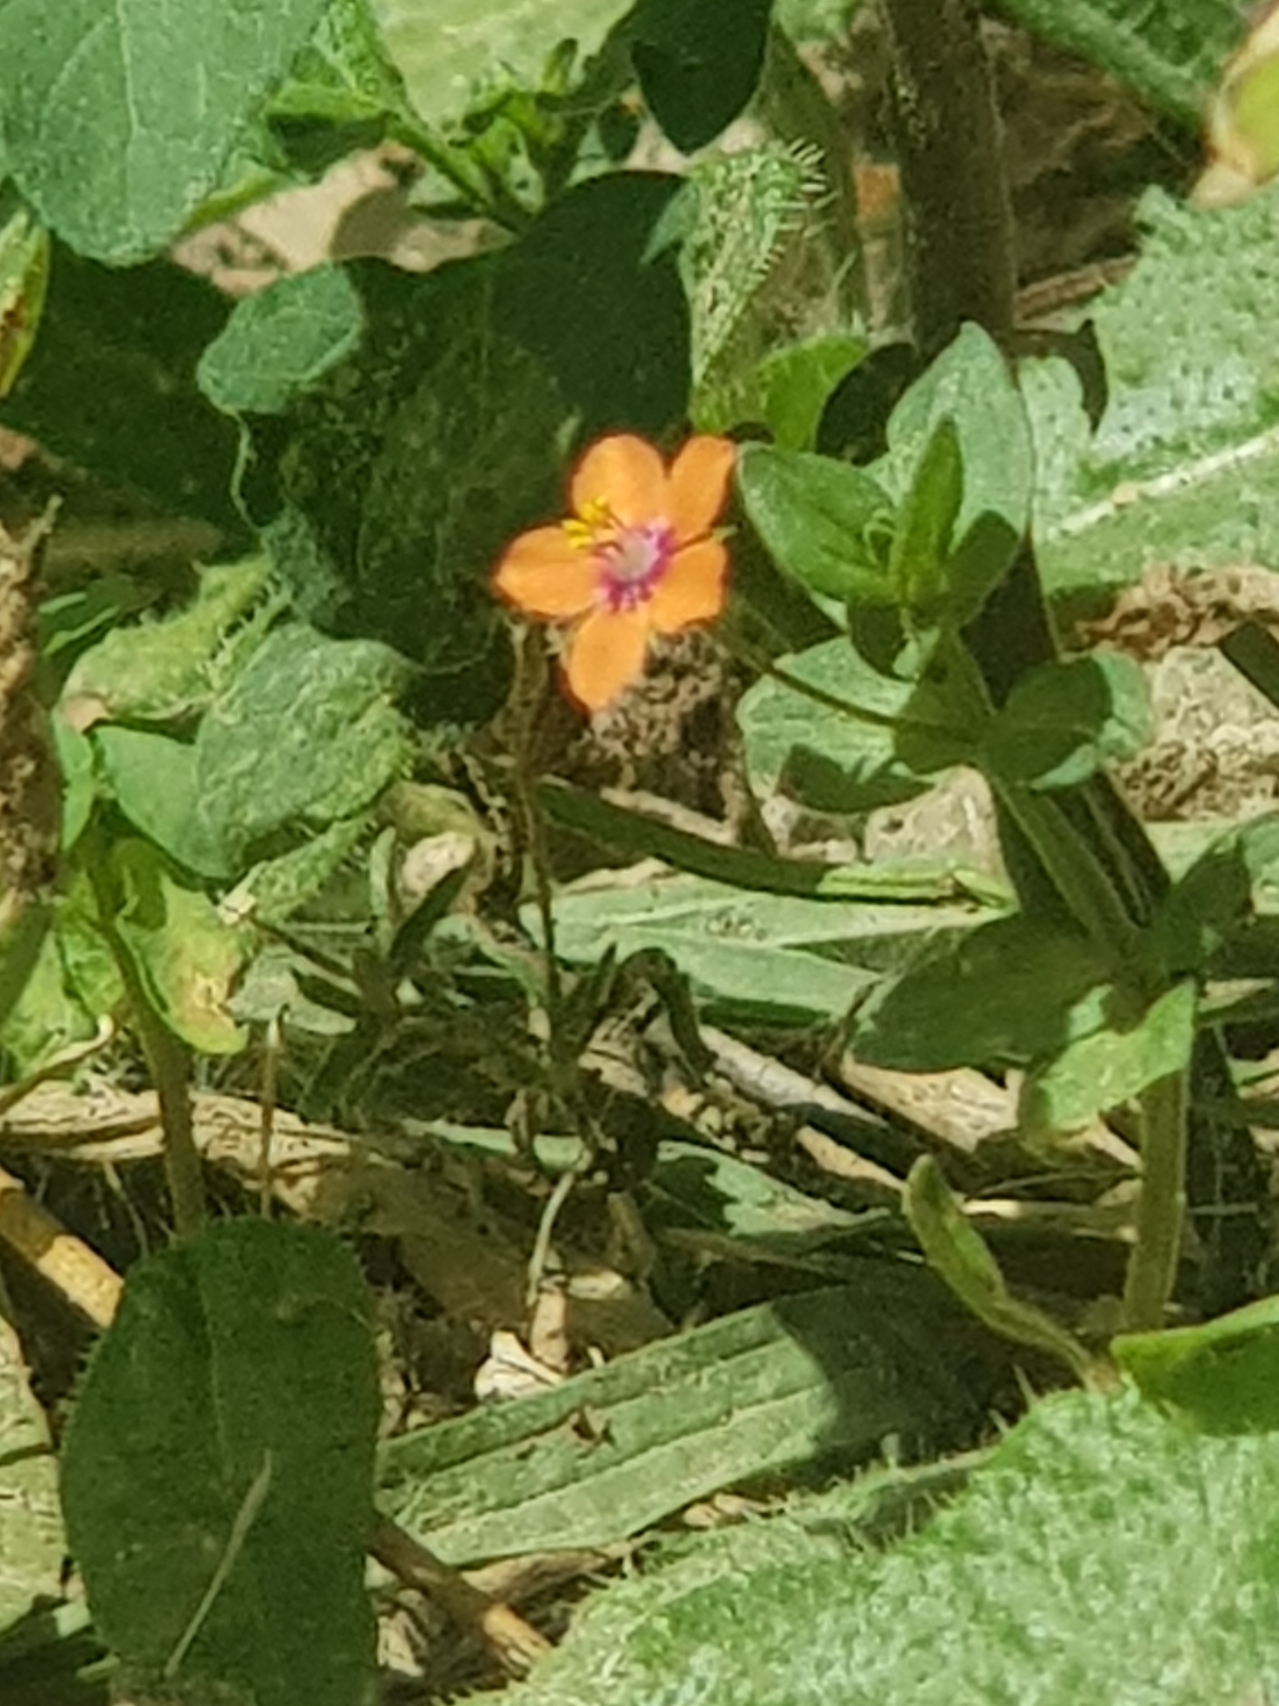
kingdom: Plantae
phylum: Tracheophyta
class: Magnoliopsida
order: Ericales
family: Primulaceae
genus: Lysimachia
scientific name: Lysimachia arvensis
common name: Scarlet pimpernel
